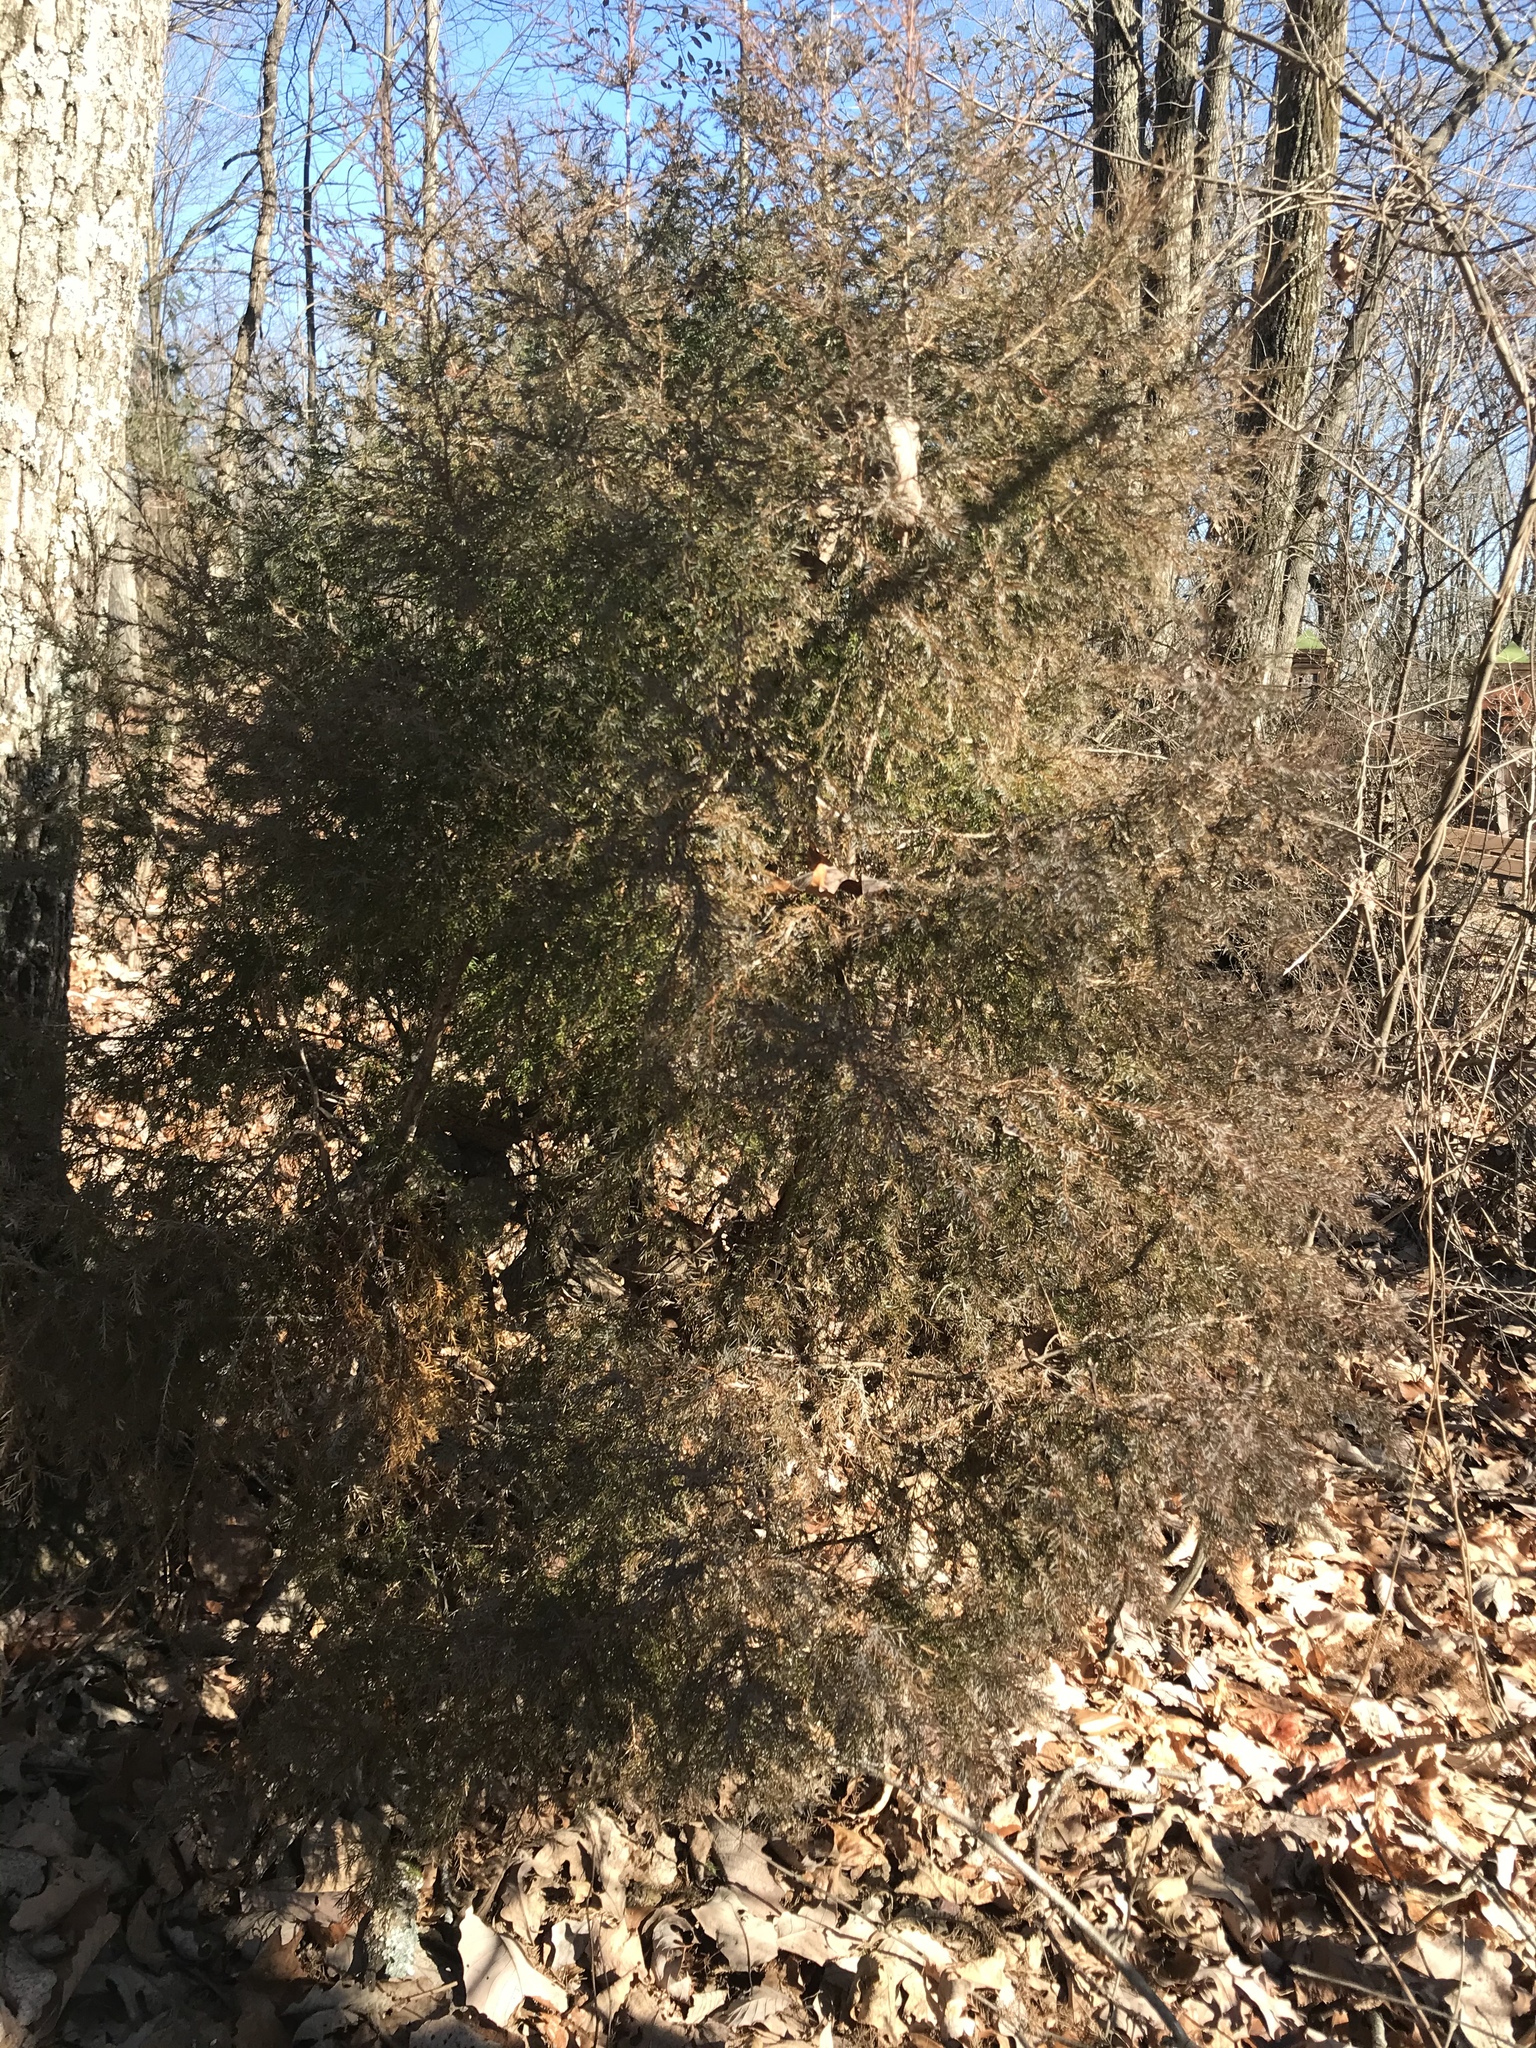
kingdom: Plantae
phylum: Tracheophyta
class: Pinopsida
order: Pinales
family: Cupressaceae
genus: Juniperus
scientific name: Juniperus virginiana
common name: Red juniper
